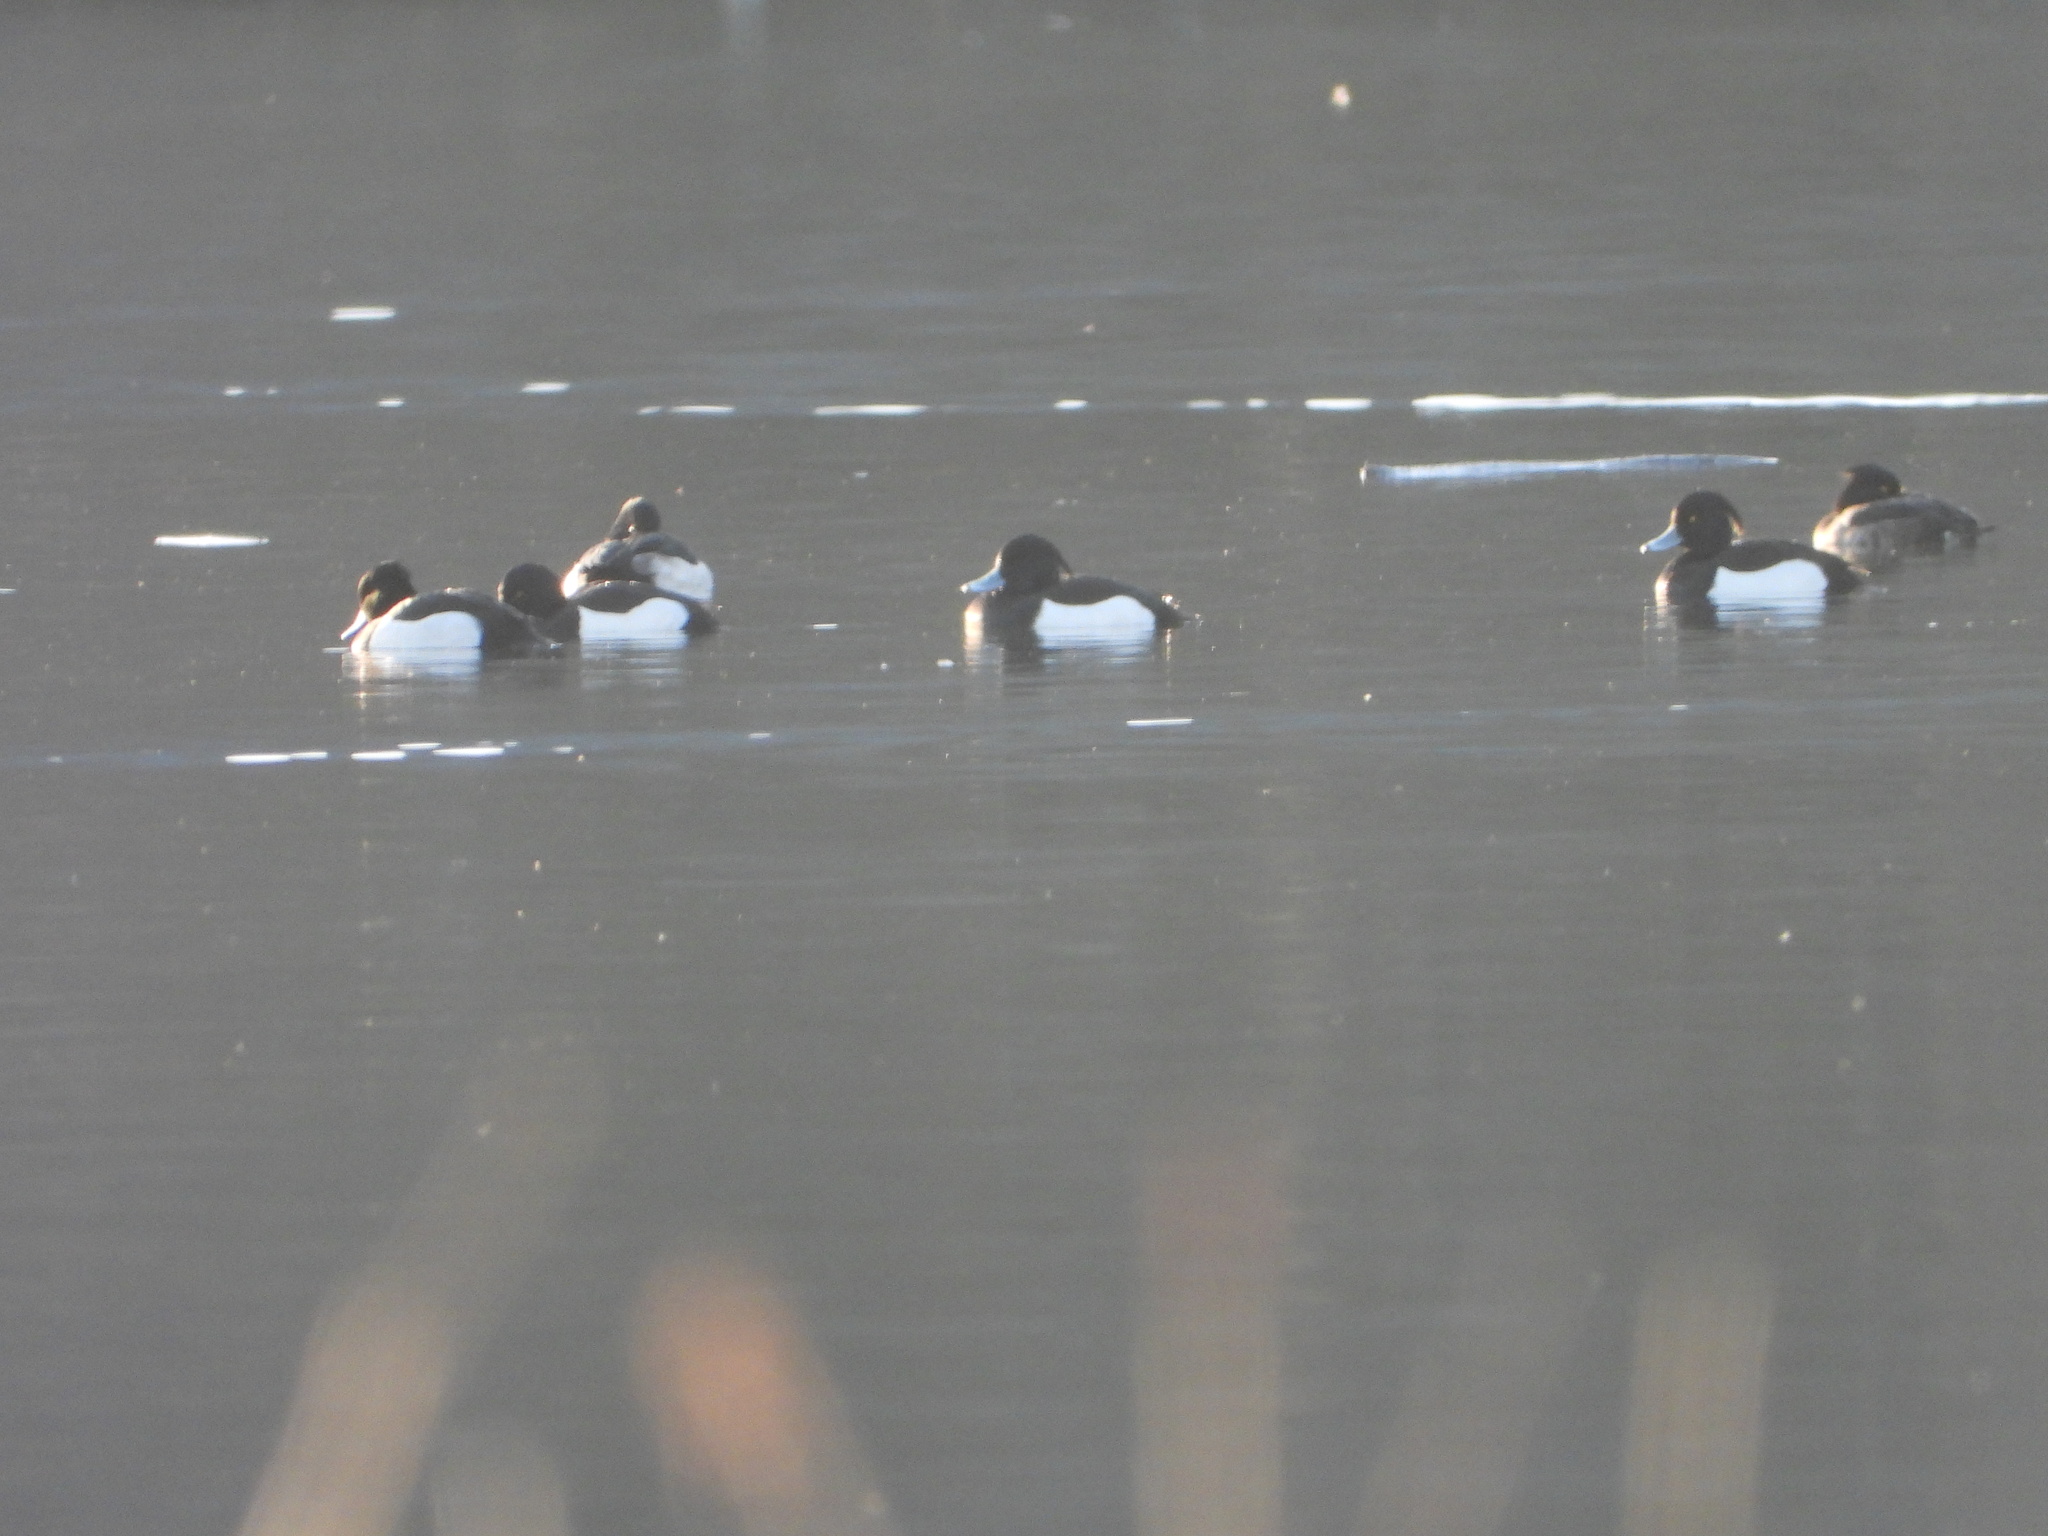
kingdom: Animalia
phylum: Chordata
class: Aves
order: Anseriformes
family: Anatidae
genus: Aythya
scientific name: Aythya fuligula
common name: Tufted duck
